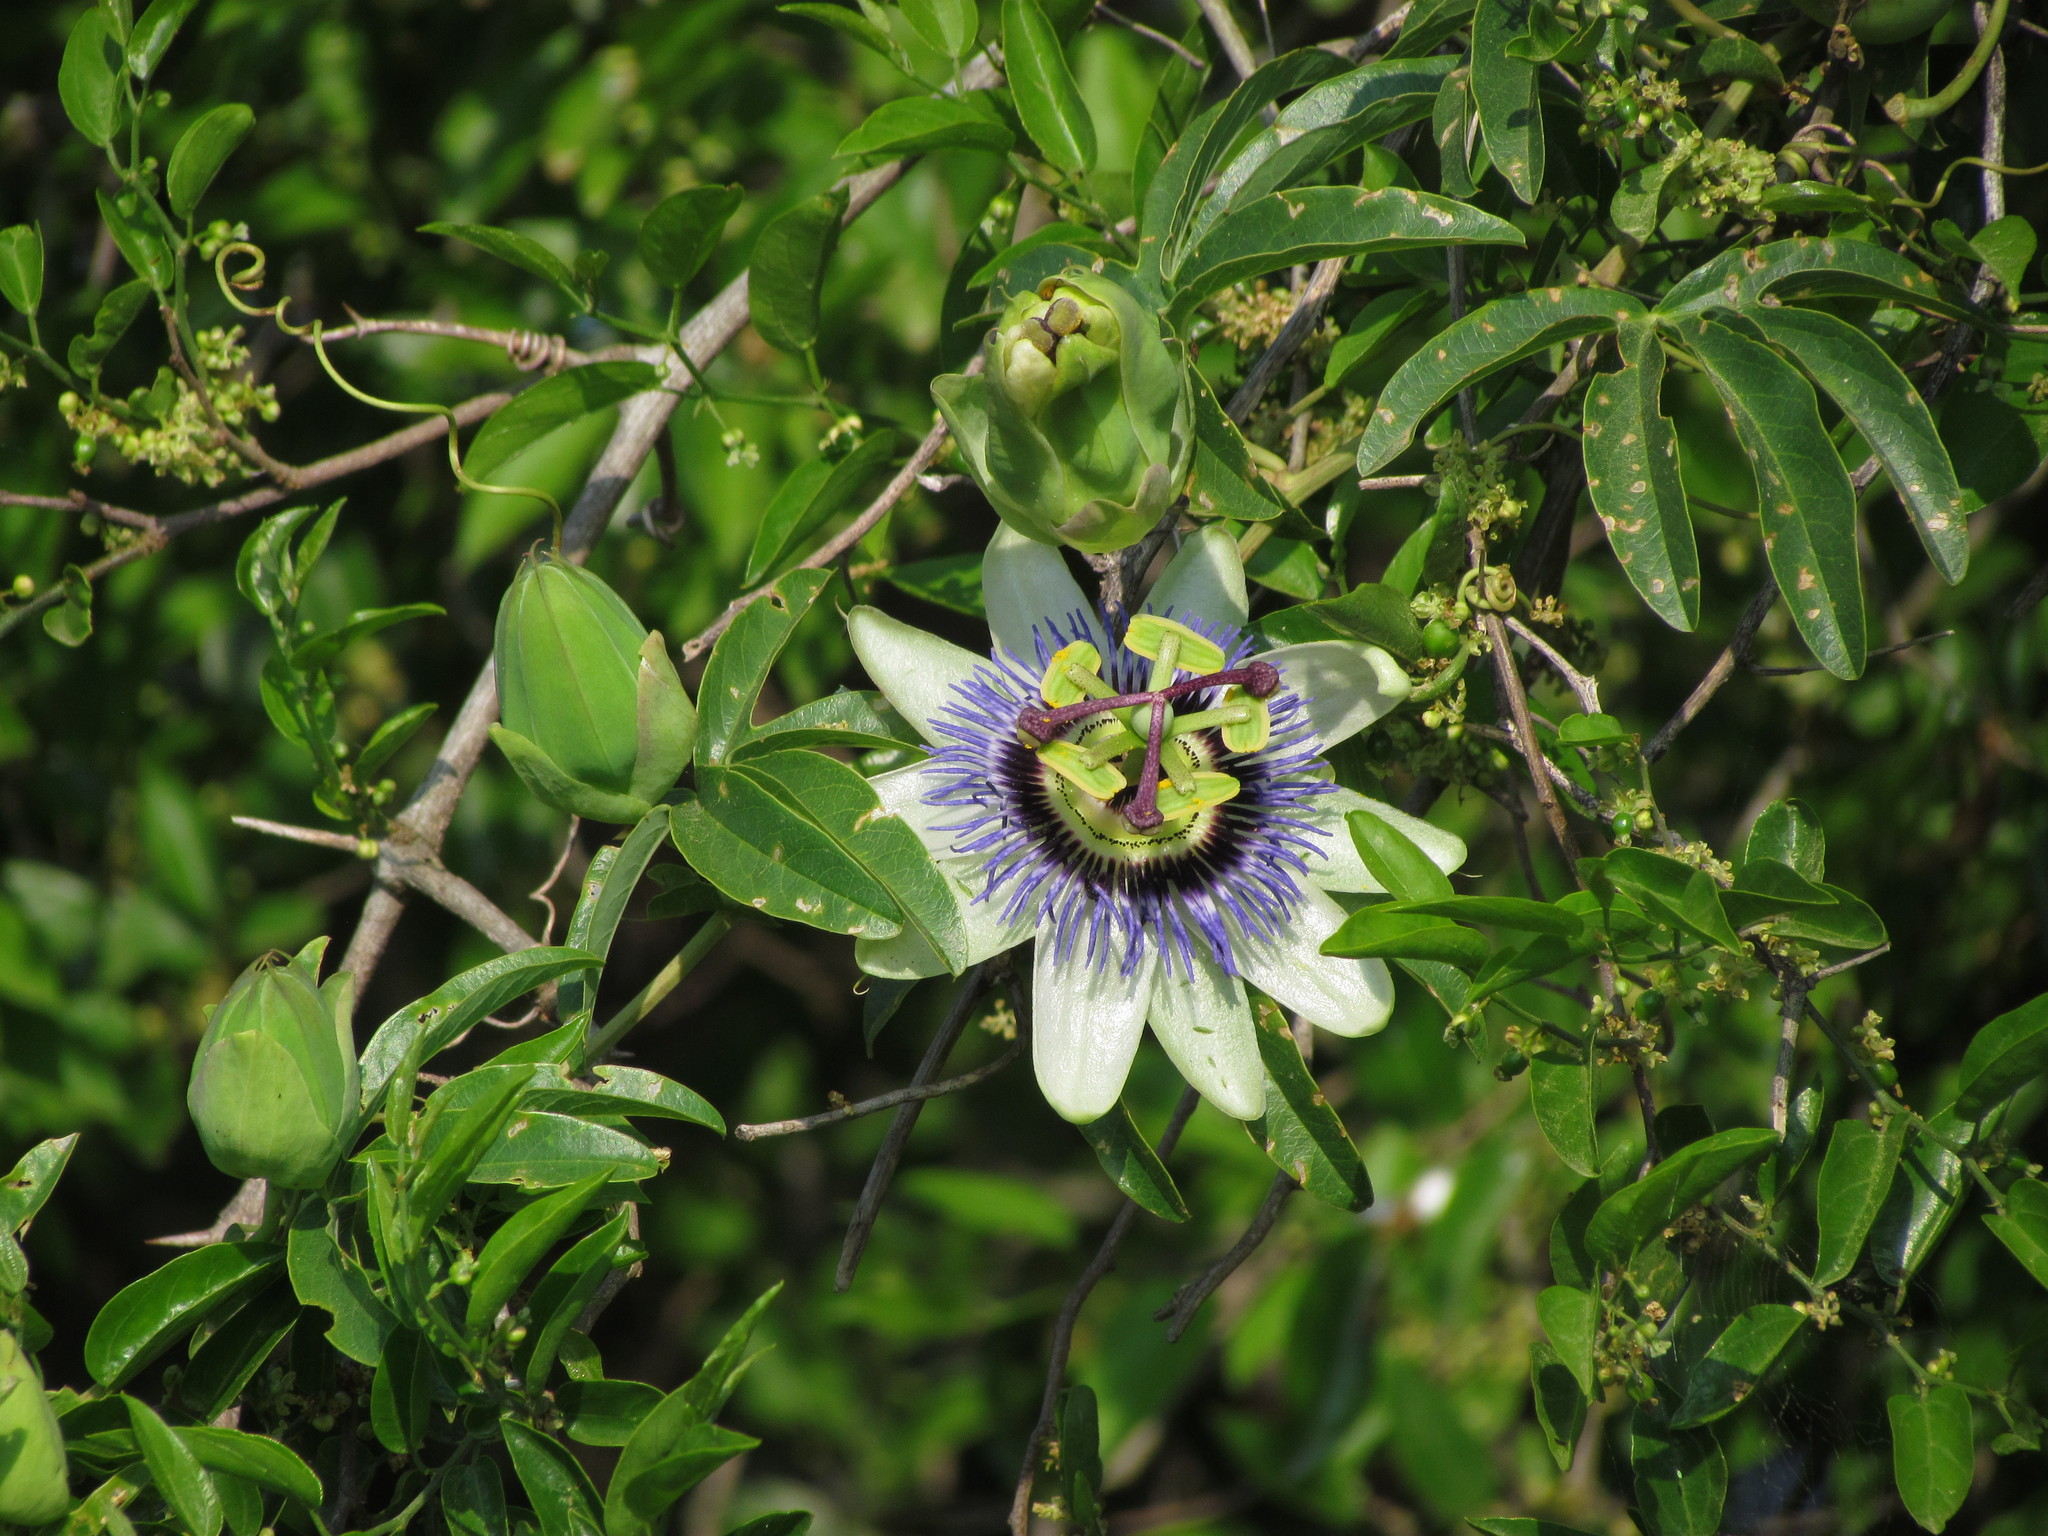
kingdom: Plantae
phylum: Tracheophyta
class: Magnoliopsida
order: Malpighiales
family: Passifloraceae
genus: Passiflora
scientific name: Passiflora caerulea
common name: Blue passionflower
